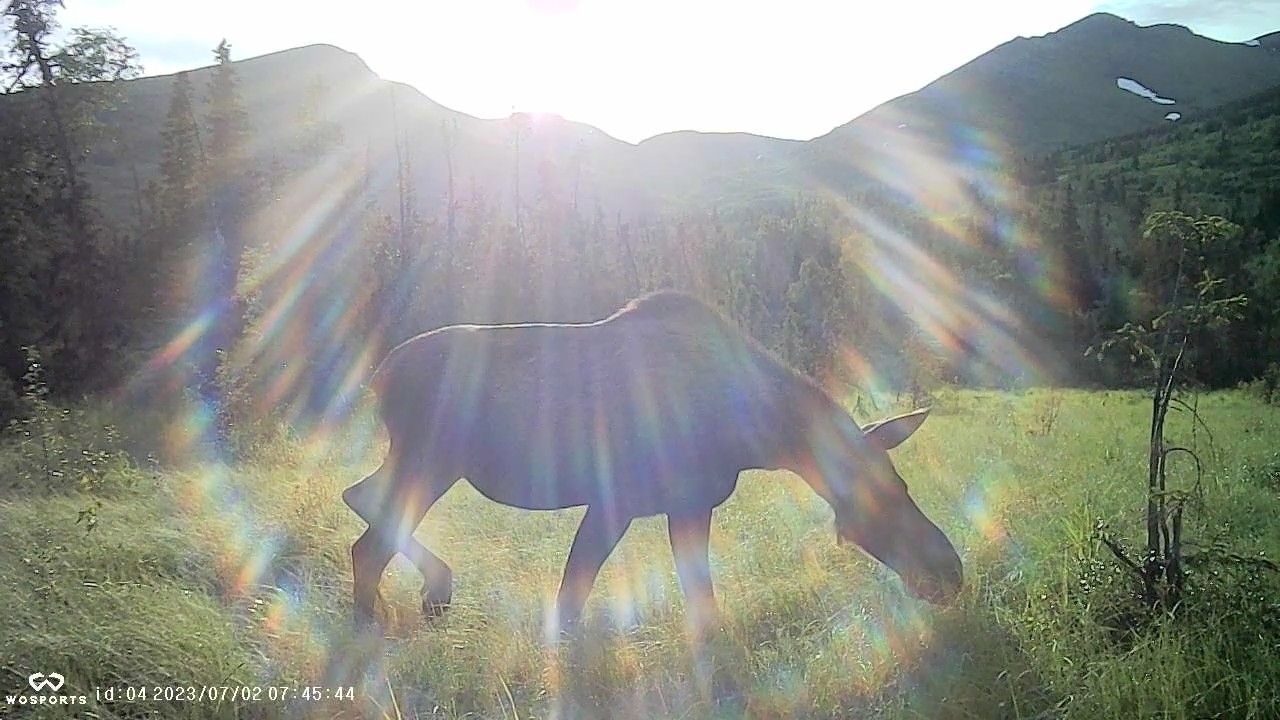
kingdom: Animalia
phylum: Chordata
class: Mammalia
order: Artiodactyla
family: Cervidae
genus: Alces
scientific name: Alces alces
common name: Moose
